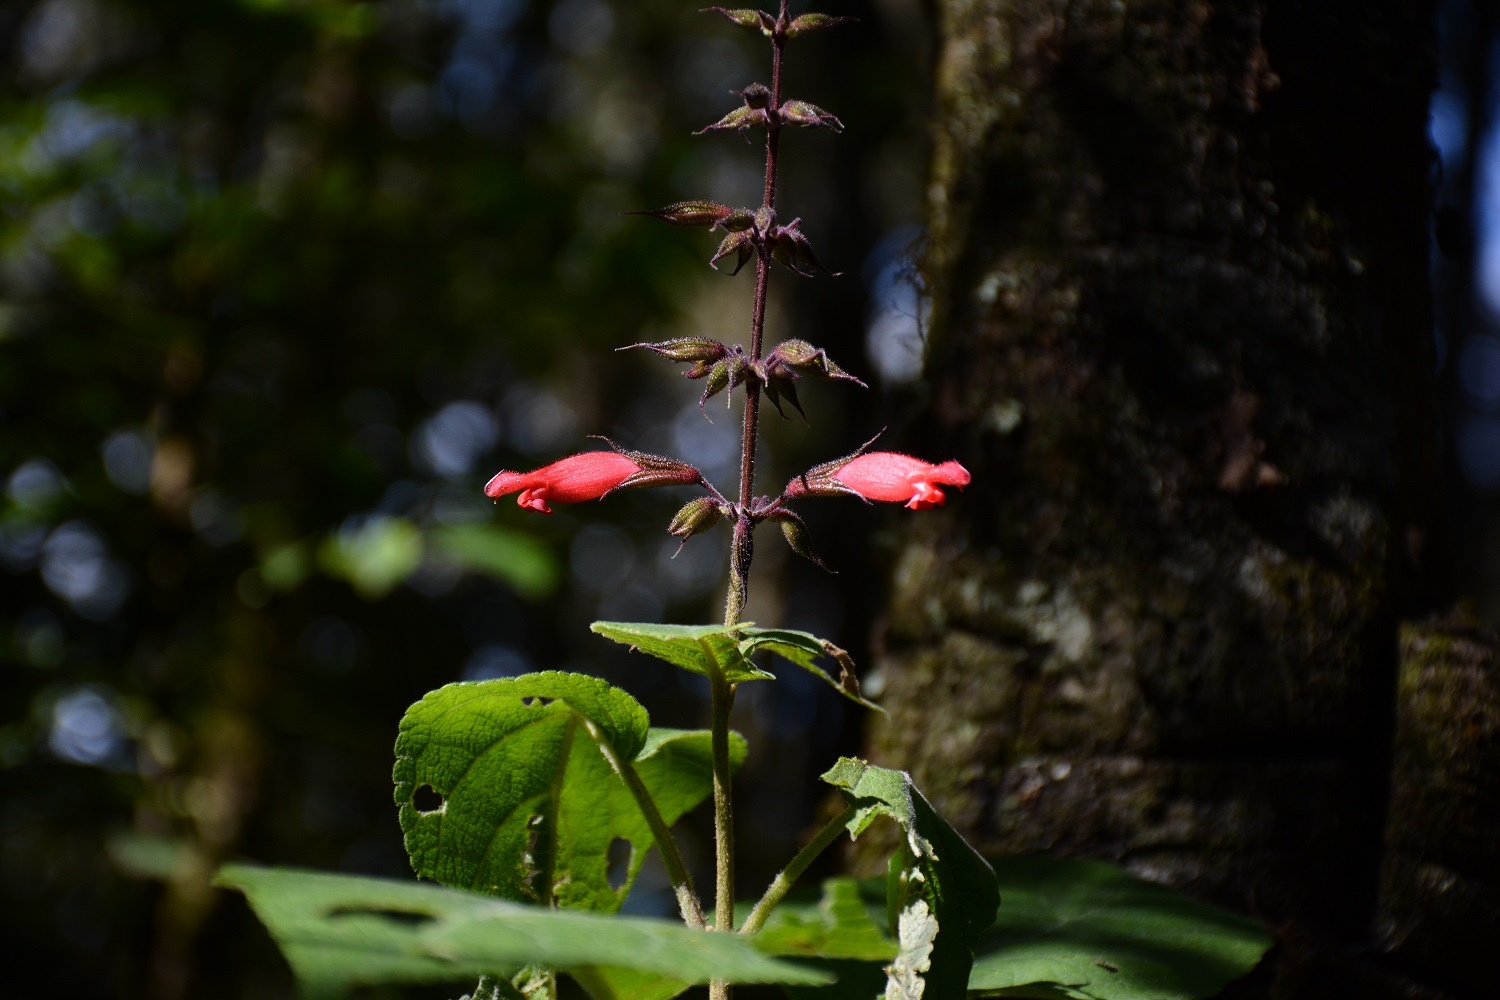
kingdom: Plantae
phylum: Tracheophyta
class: Magnoliopsida
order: Lamiales
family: Lamiaceae
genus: Salvia
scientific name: Salvia karwinskii
